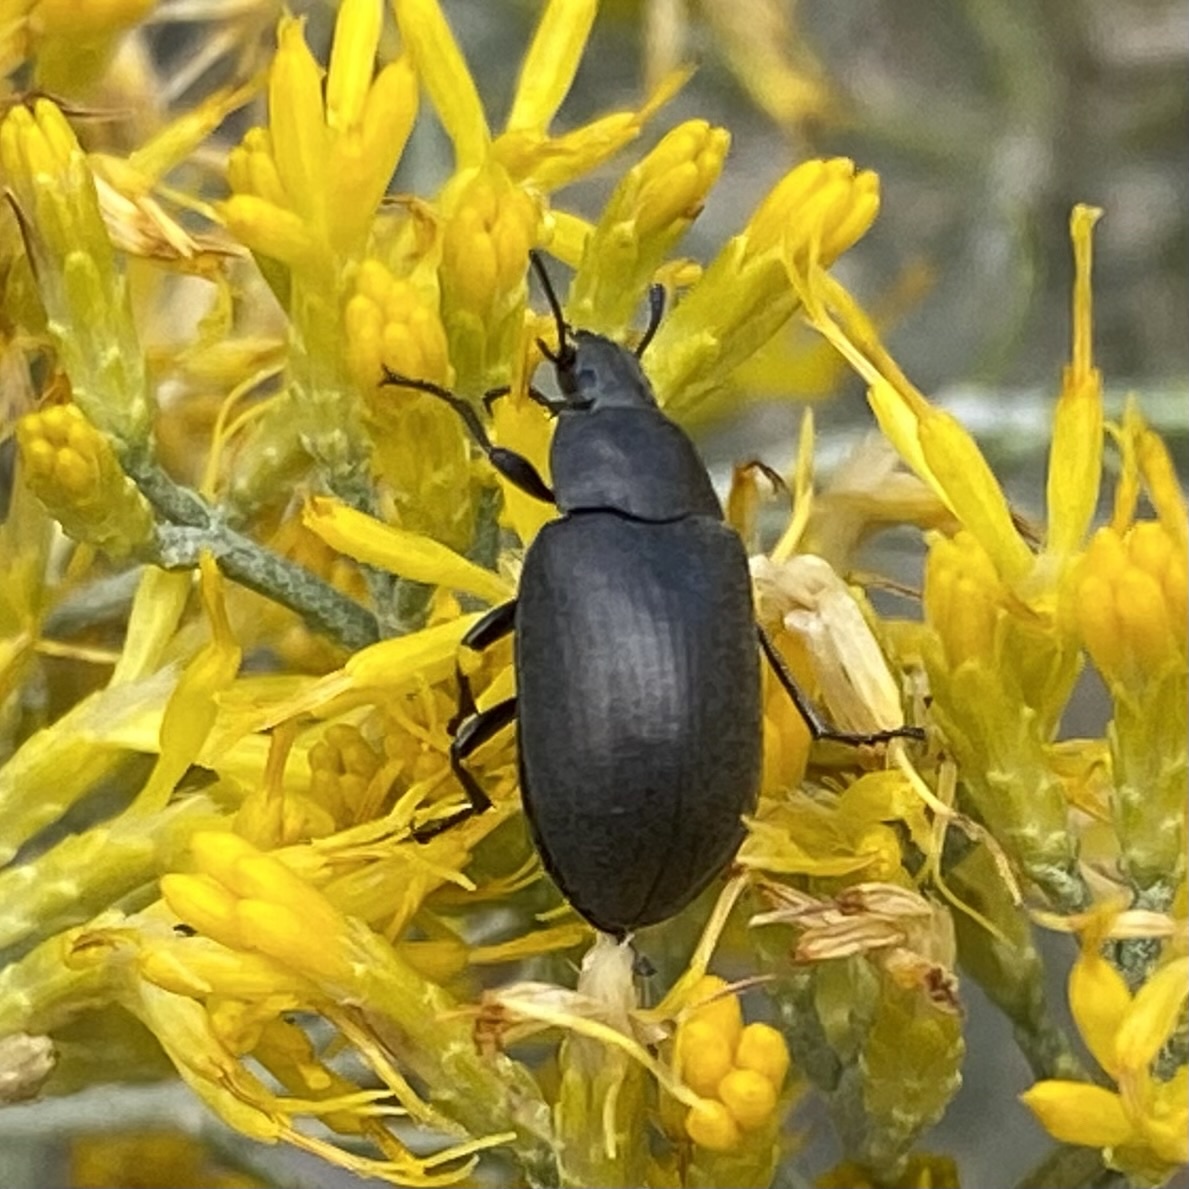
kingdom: Animalia
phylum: Arthropoda
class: Insecta
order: Coleoptera
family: Tenebrionidae
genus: Bothrotes
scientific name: Bothrotes
